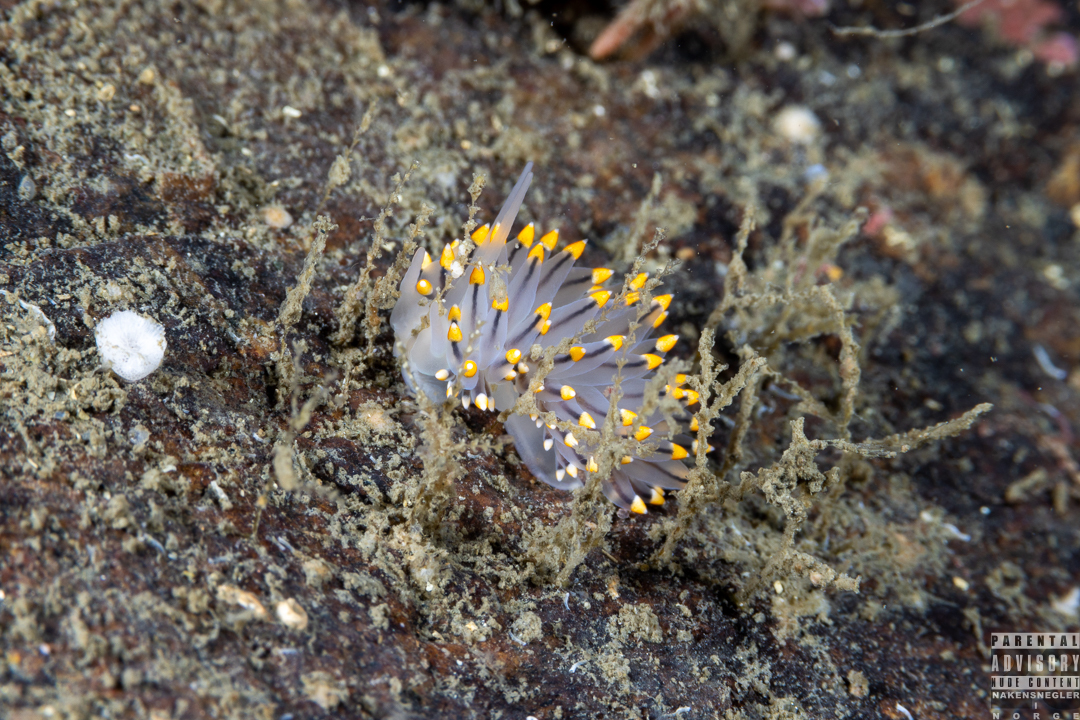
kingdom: Animalia
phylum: Mollusca
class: Gastropoda
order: Nudibranchia
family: Eubranchidae
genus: Eubranchus
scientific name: Eubranchus tricolor
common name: Painted balloon aeolis
